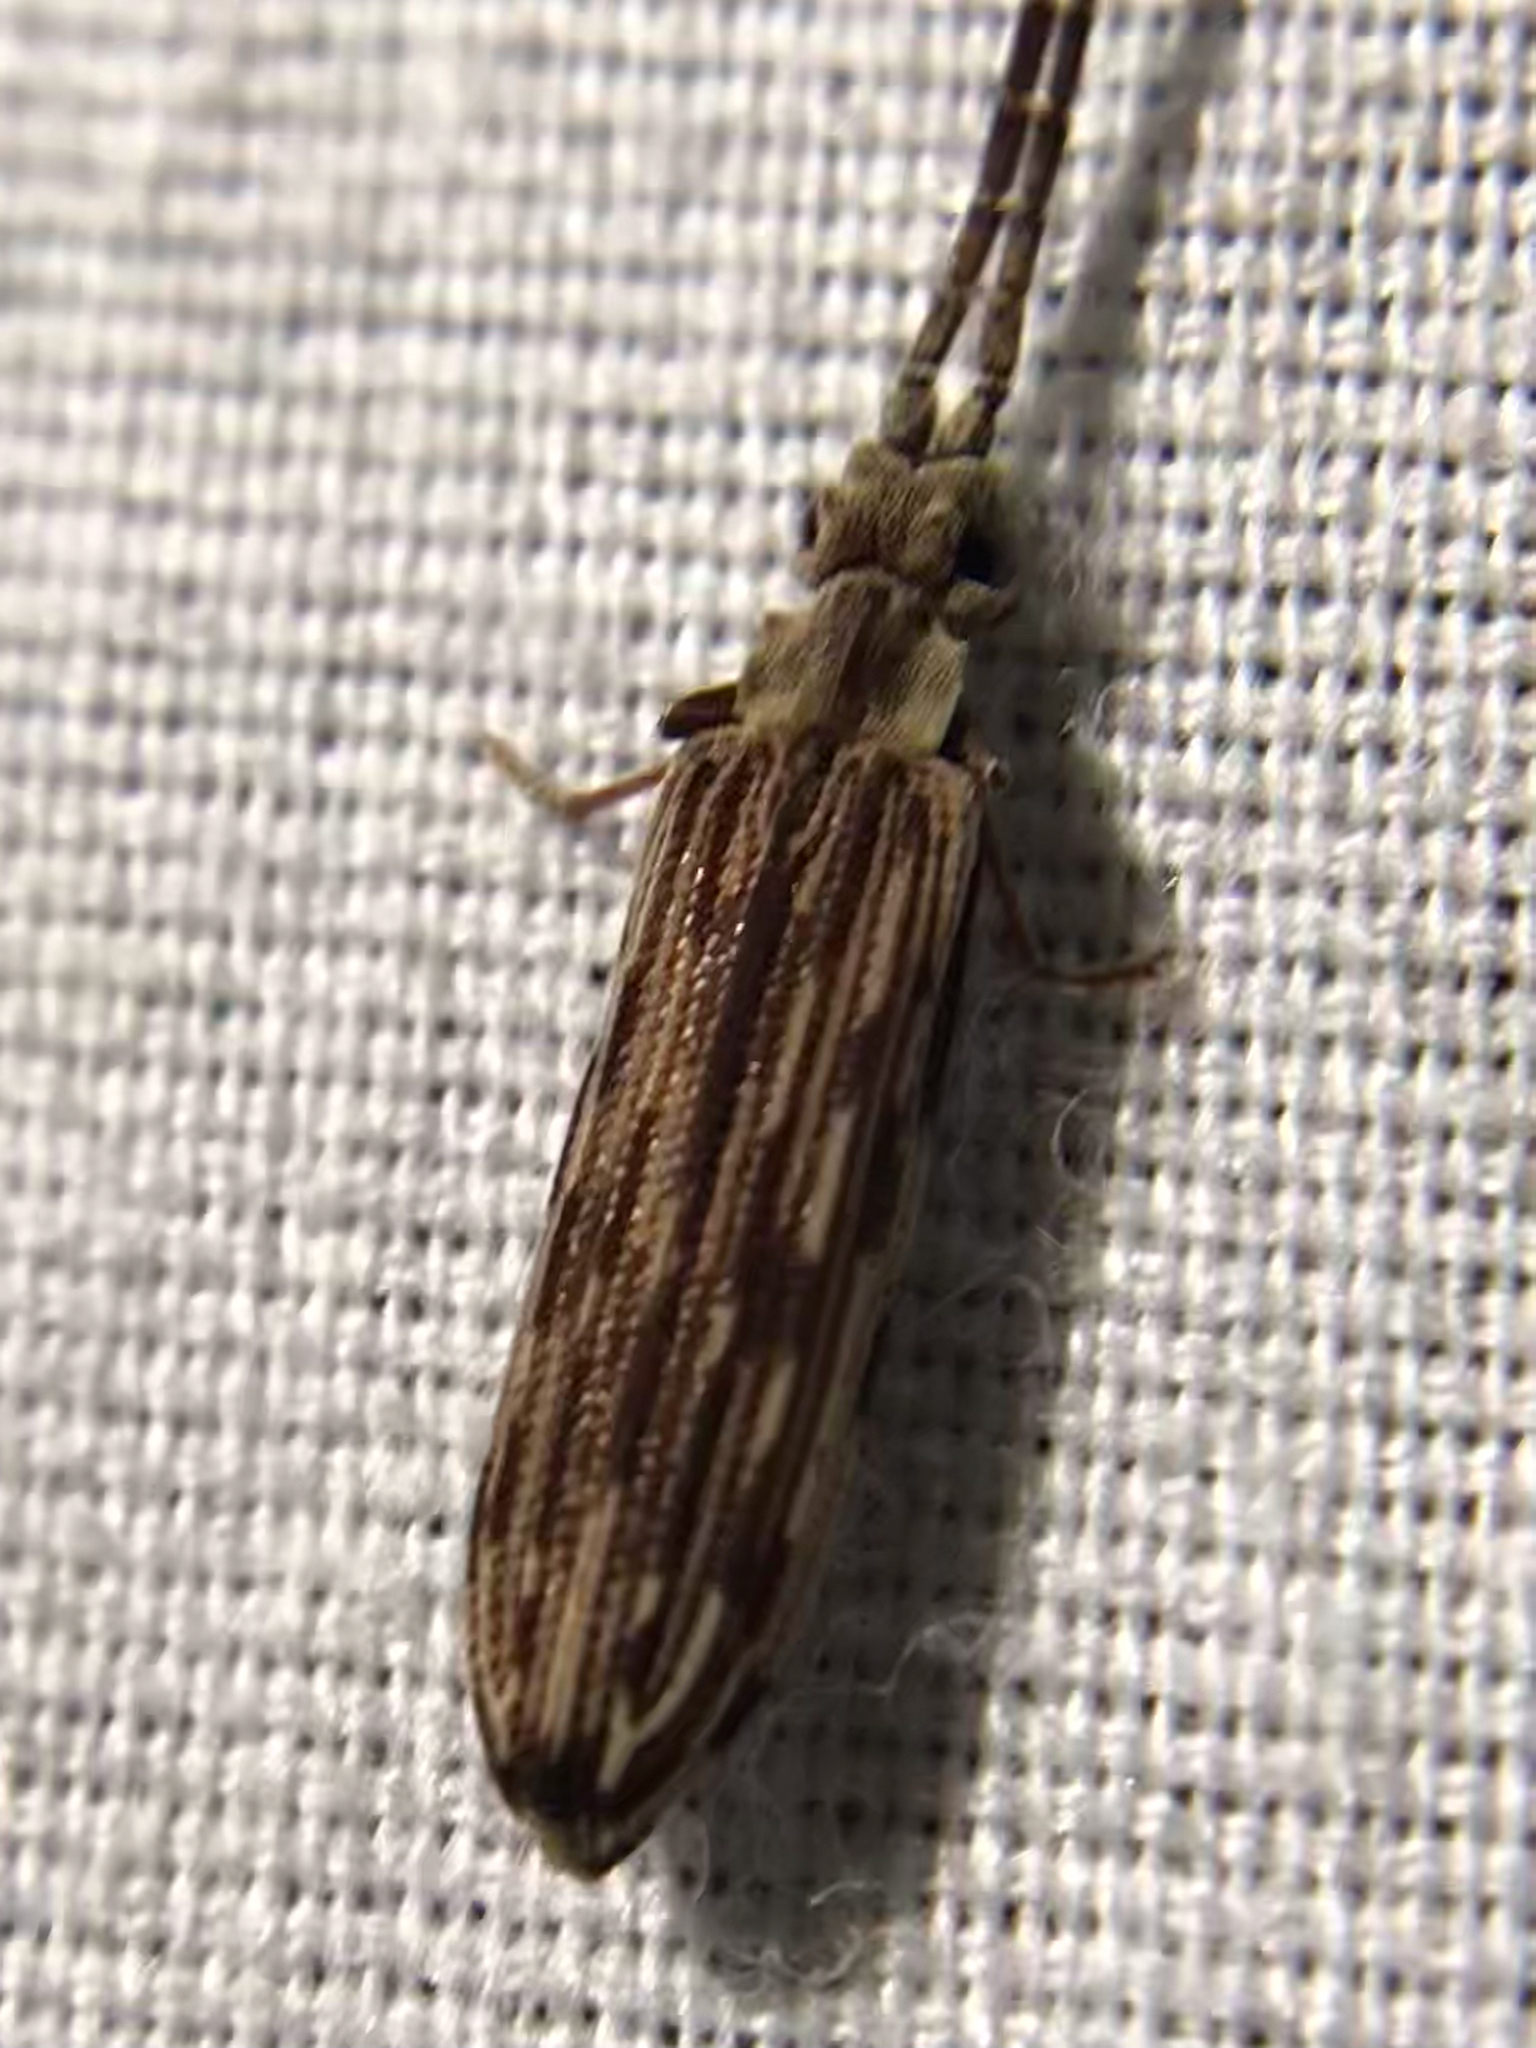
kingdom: Animalia
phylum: Arthropoda
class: Insecta
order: Coleoptera
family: Cupedidae
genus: Tenomerga
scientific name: Tenomerga cinerea
